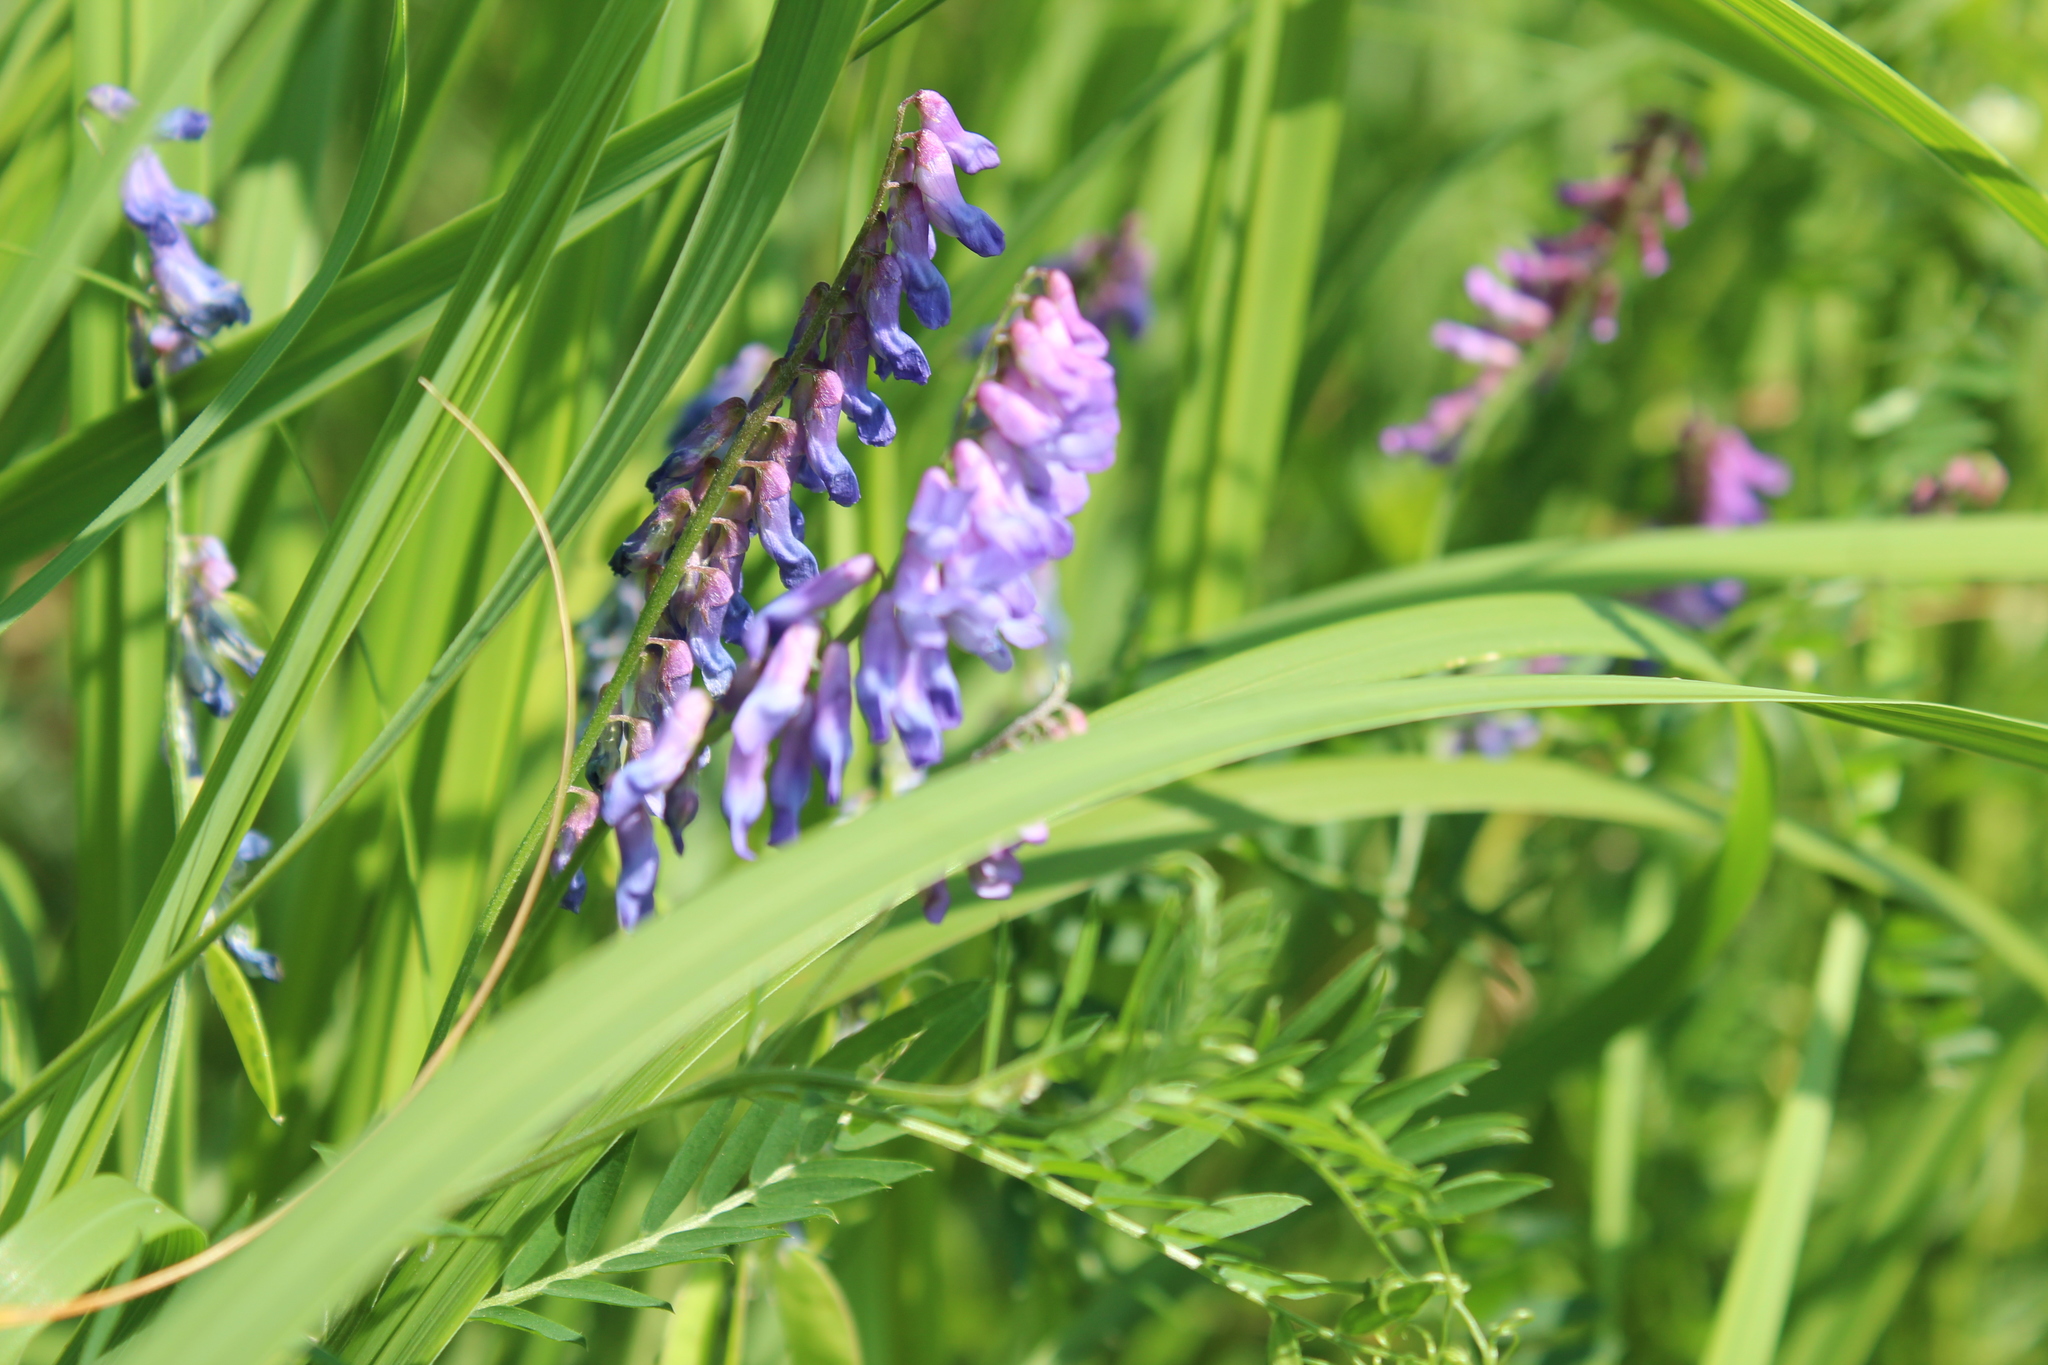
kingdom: Plantae
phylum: Tracheophyta
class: Magnoliopsida
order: Fabales
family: Fabaceae
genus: Vicia
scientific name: Vicia cracca
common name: Bird vetch
